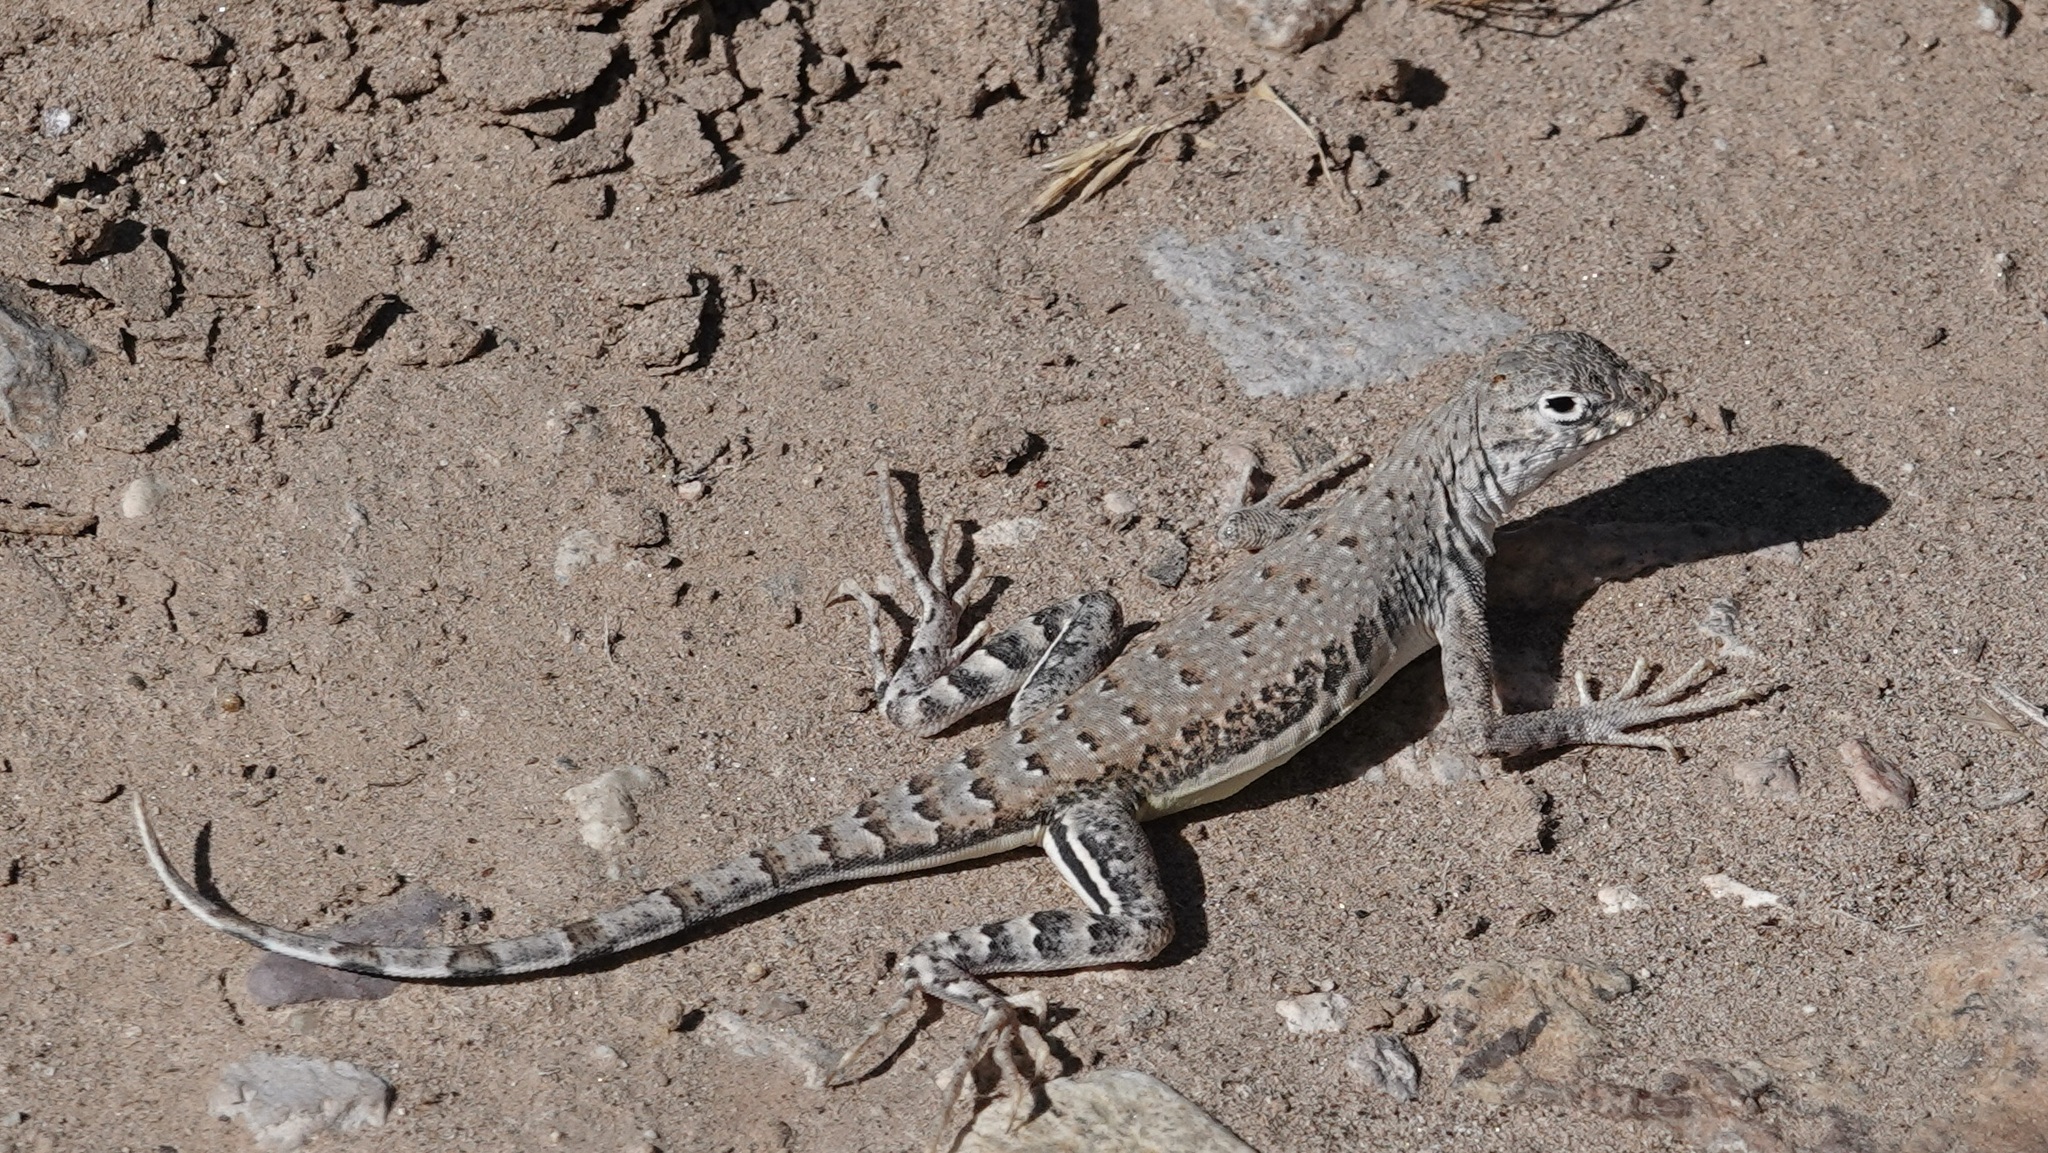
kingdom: Animalia
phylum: Chordata
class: Squamata
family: Phrynosomatidae
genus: Callisaurus
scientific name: Callisaurus draconoides
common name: Zebra-tailed lizard
